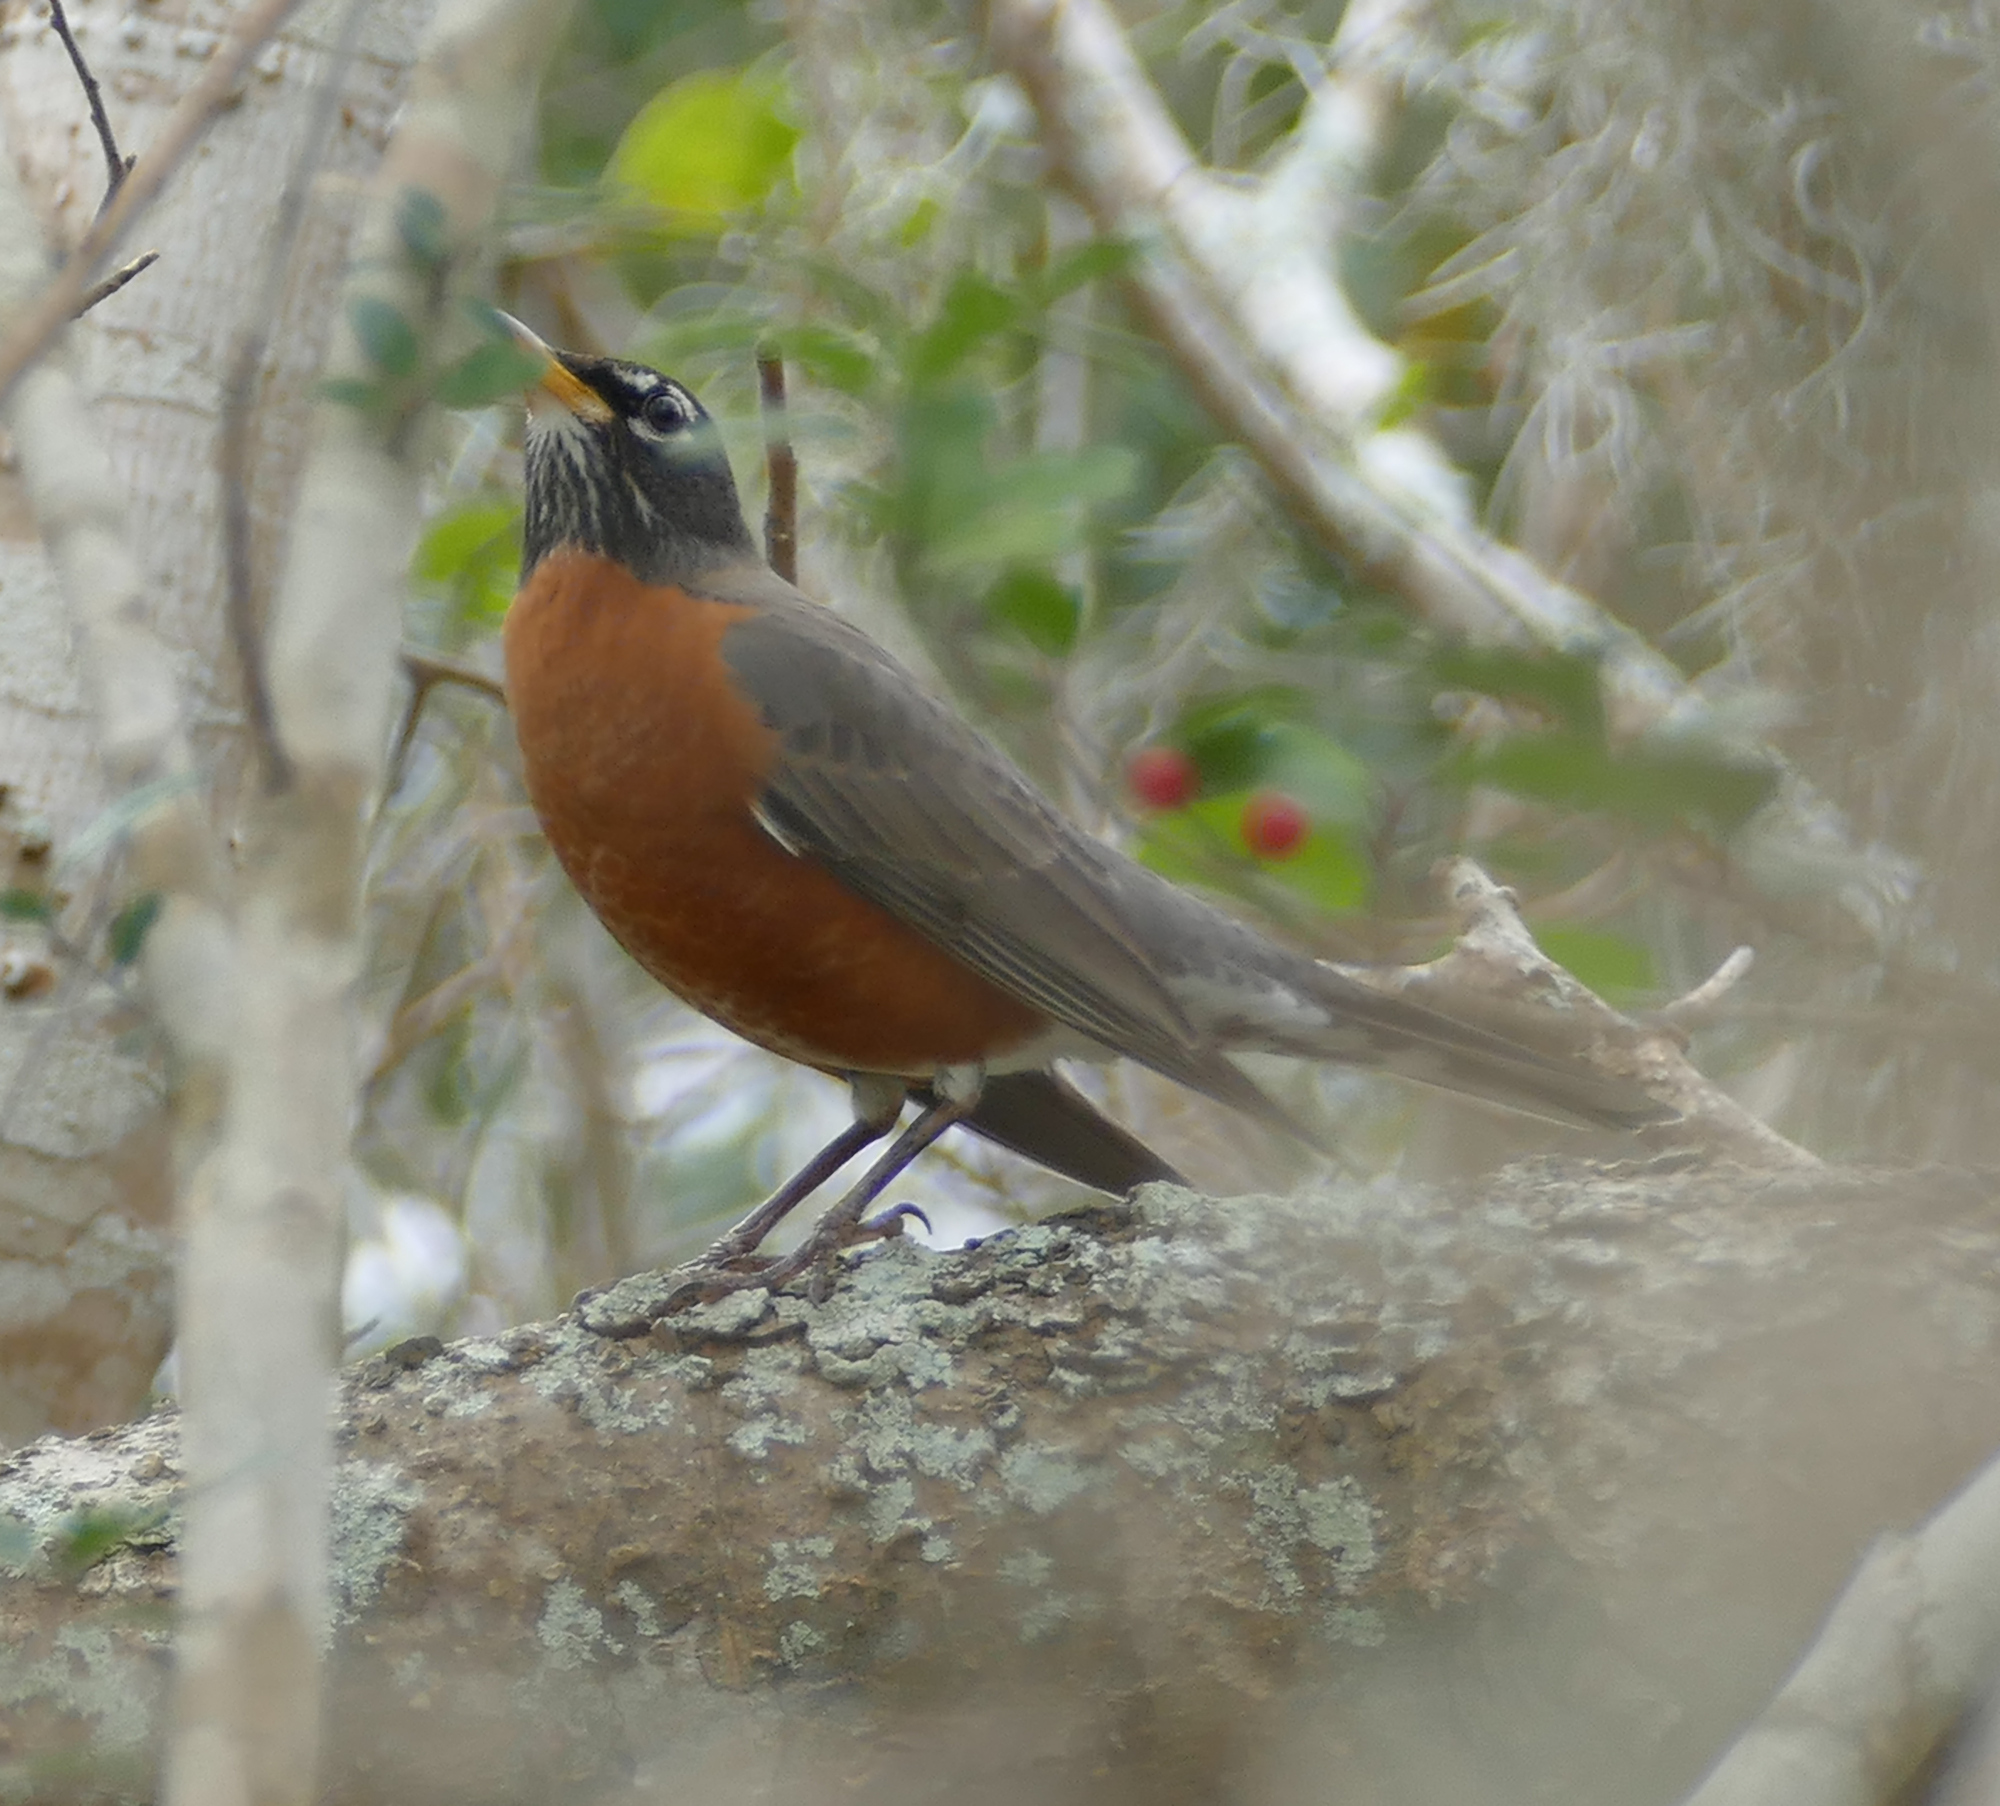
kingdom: Animalia
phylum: Chordata
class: Aves
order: Passeriformes
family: Turdidae
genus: Turdus
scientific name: Turdus migratorius
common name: American robin
